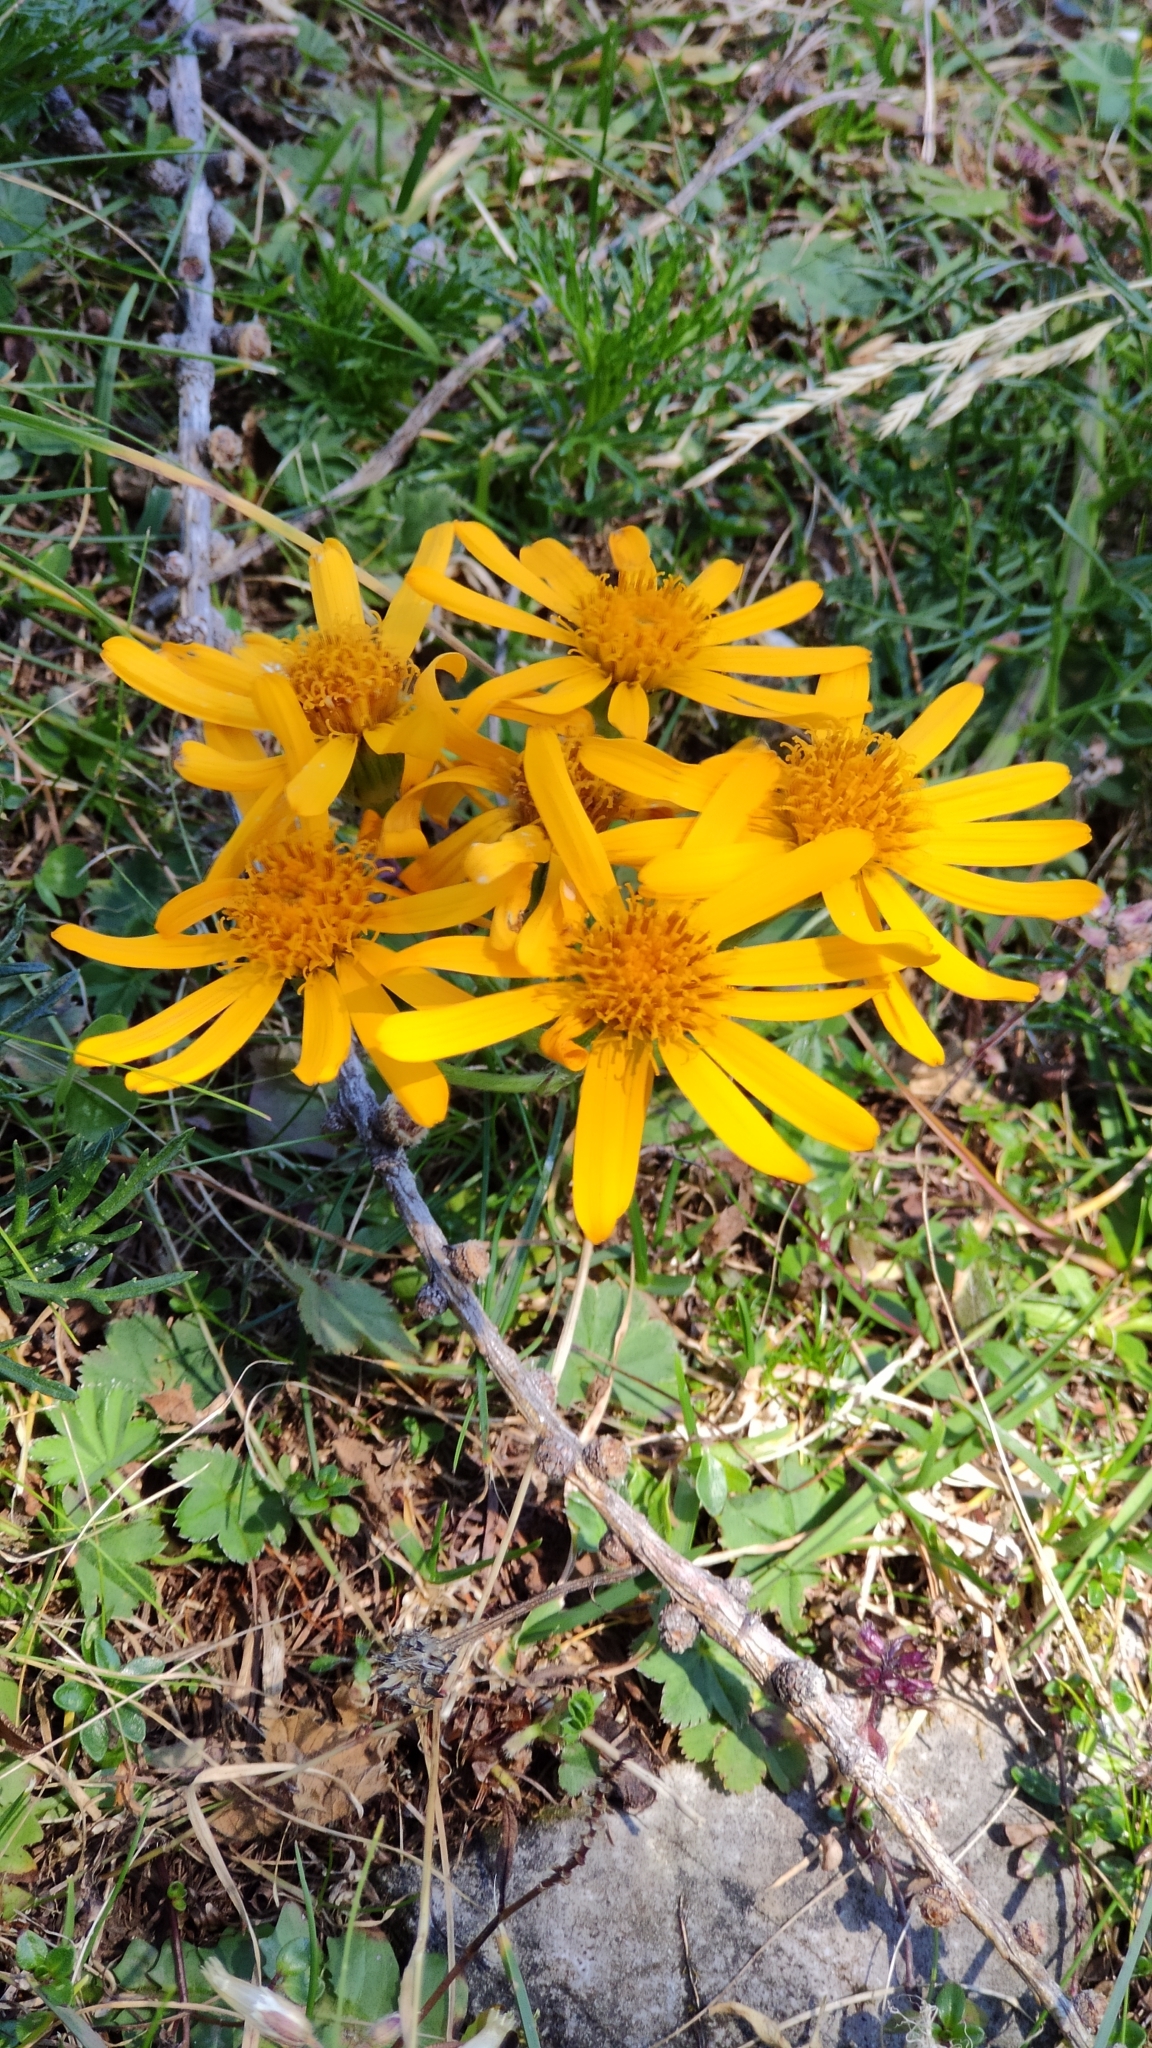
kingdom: Plantae
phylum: Tracheophyta
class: Magnoliopsida
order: Asterales
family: Asteraceae
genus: Jacobaea
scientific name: Jacobaea abrotanifolia
